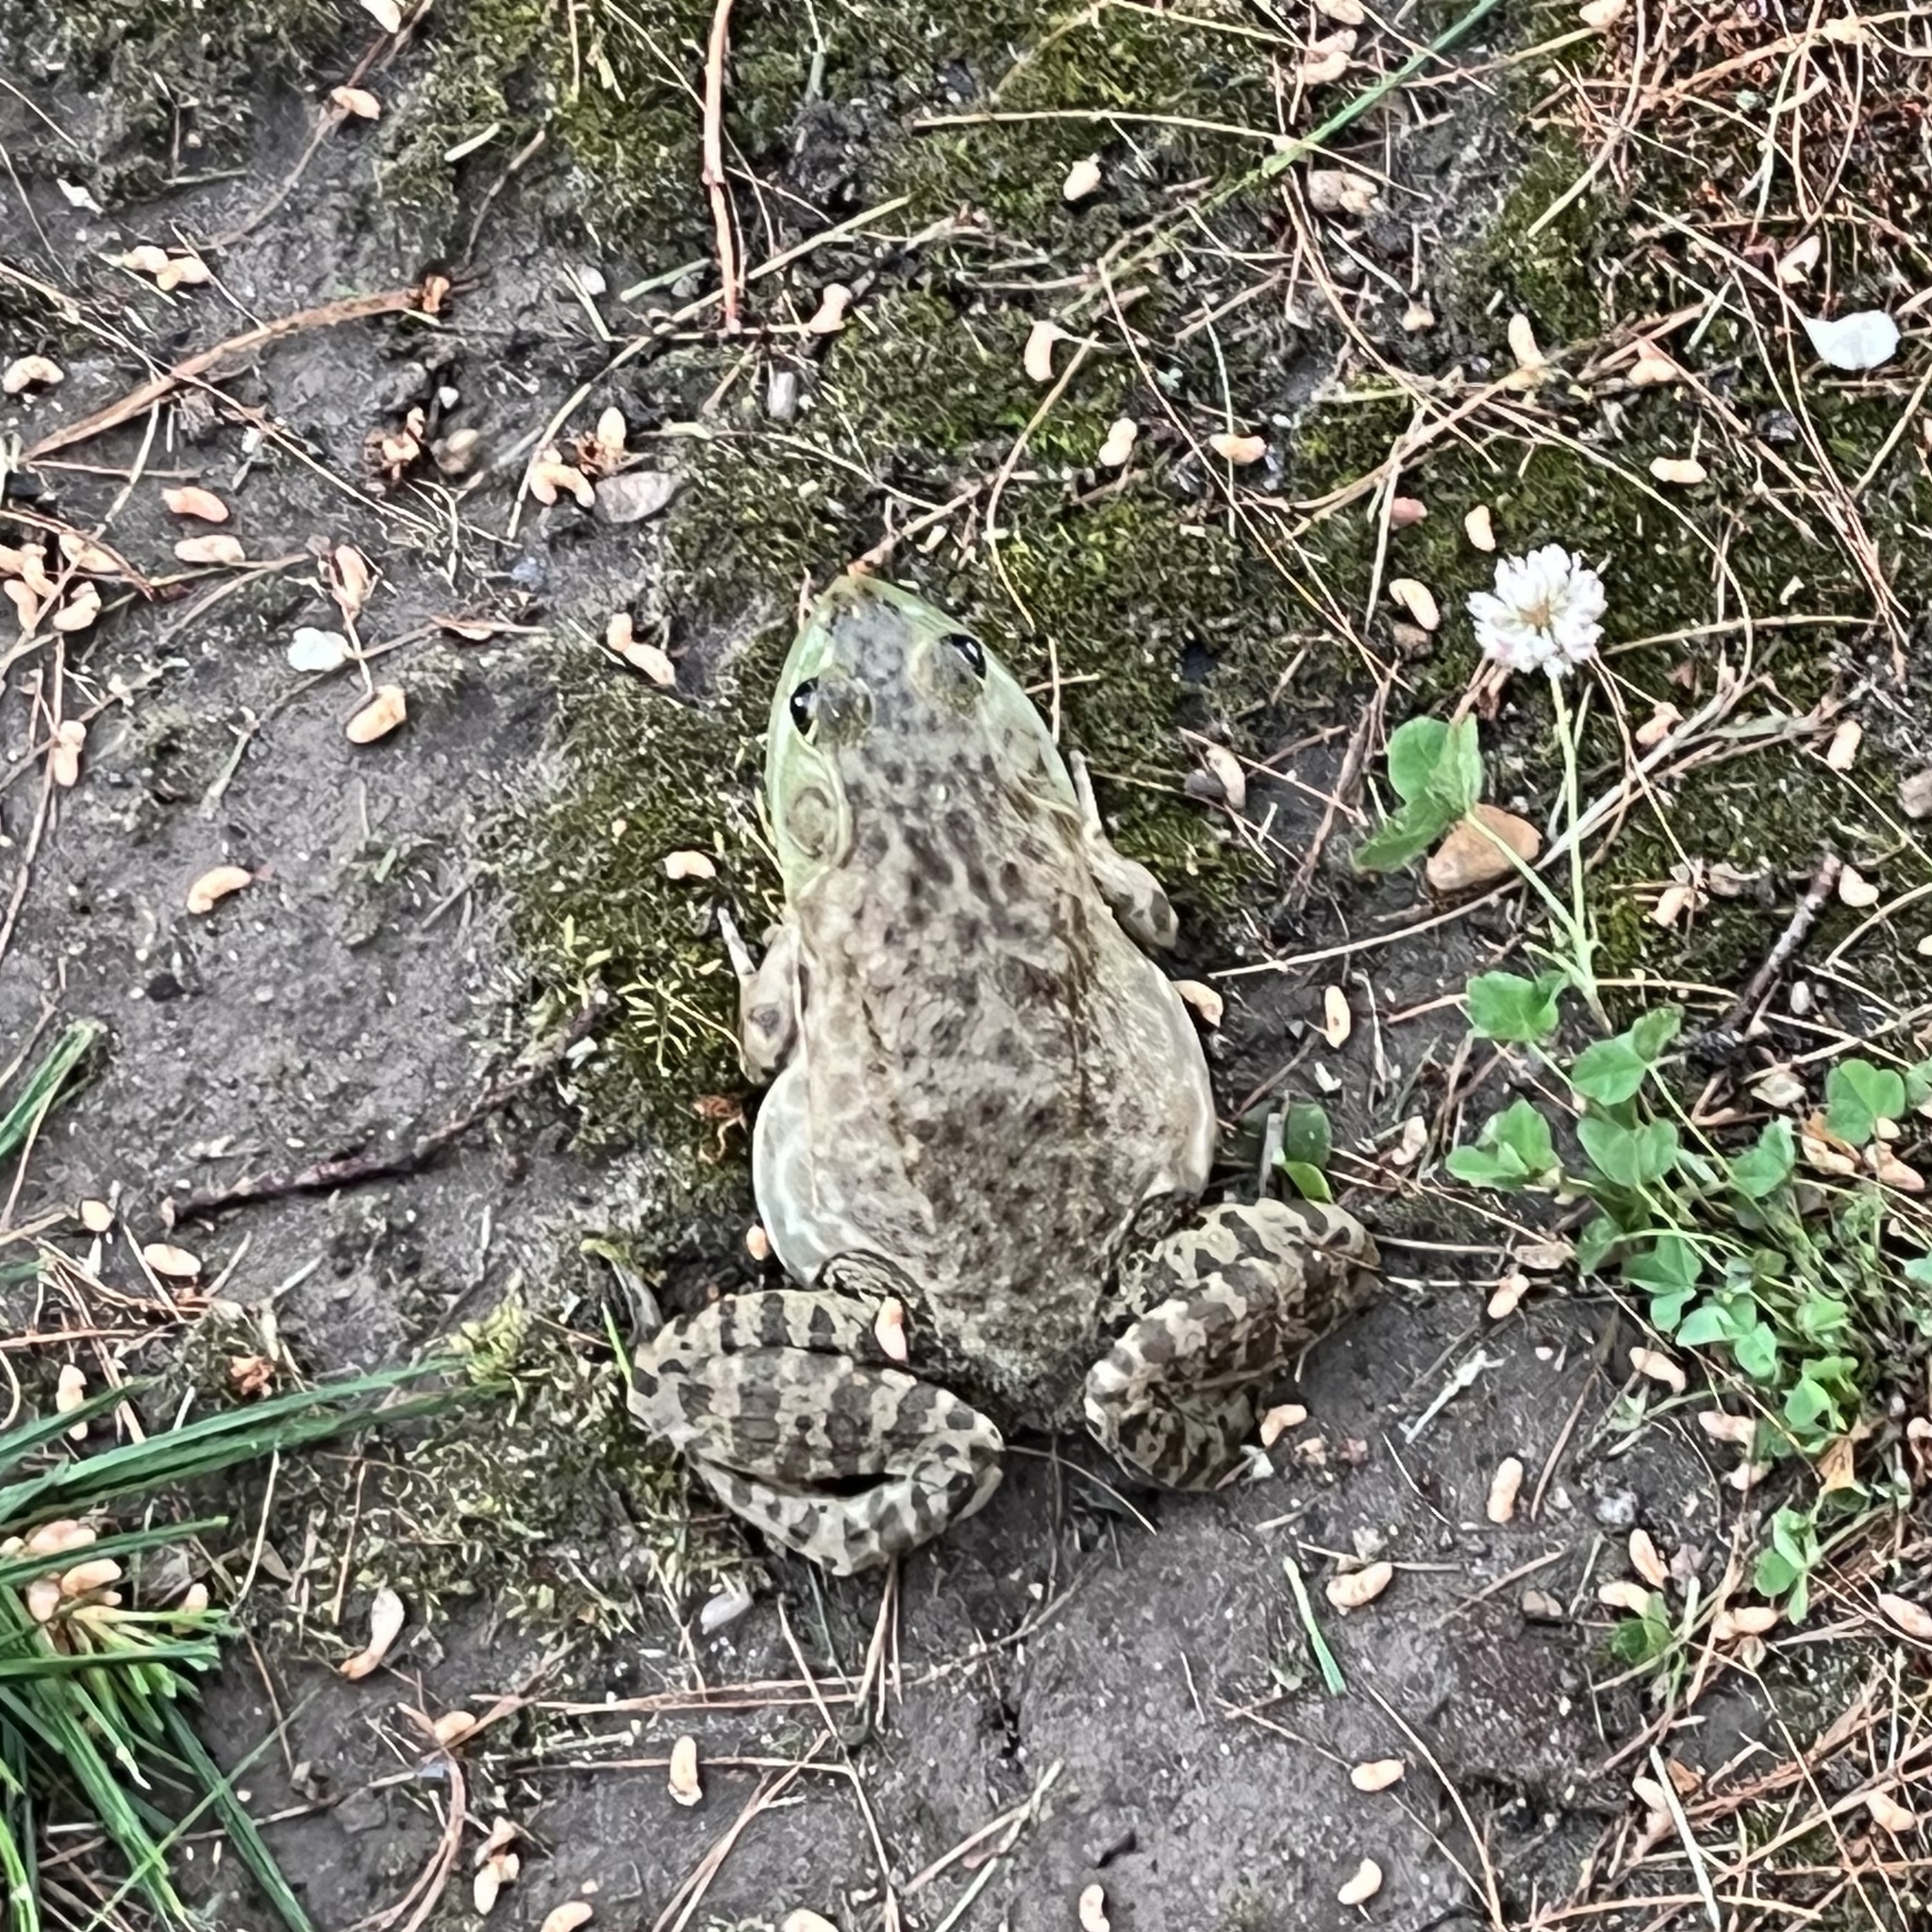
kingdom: Animalia
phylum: Chordata
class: Amphibia
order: Anura
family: Ranidae
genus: Lithobates
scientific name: Lithobates catesbeianus
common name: American bullfrog
